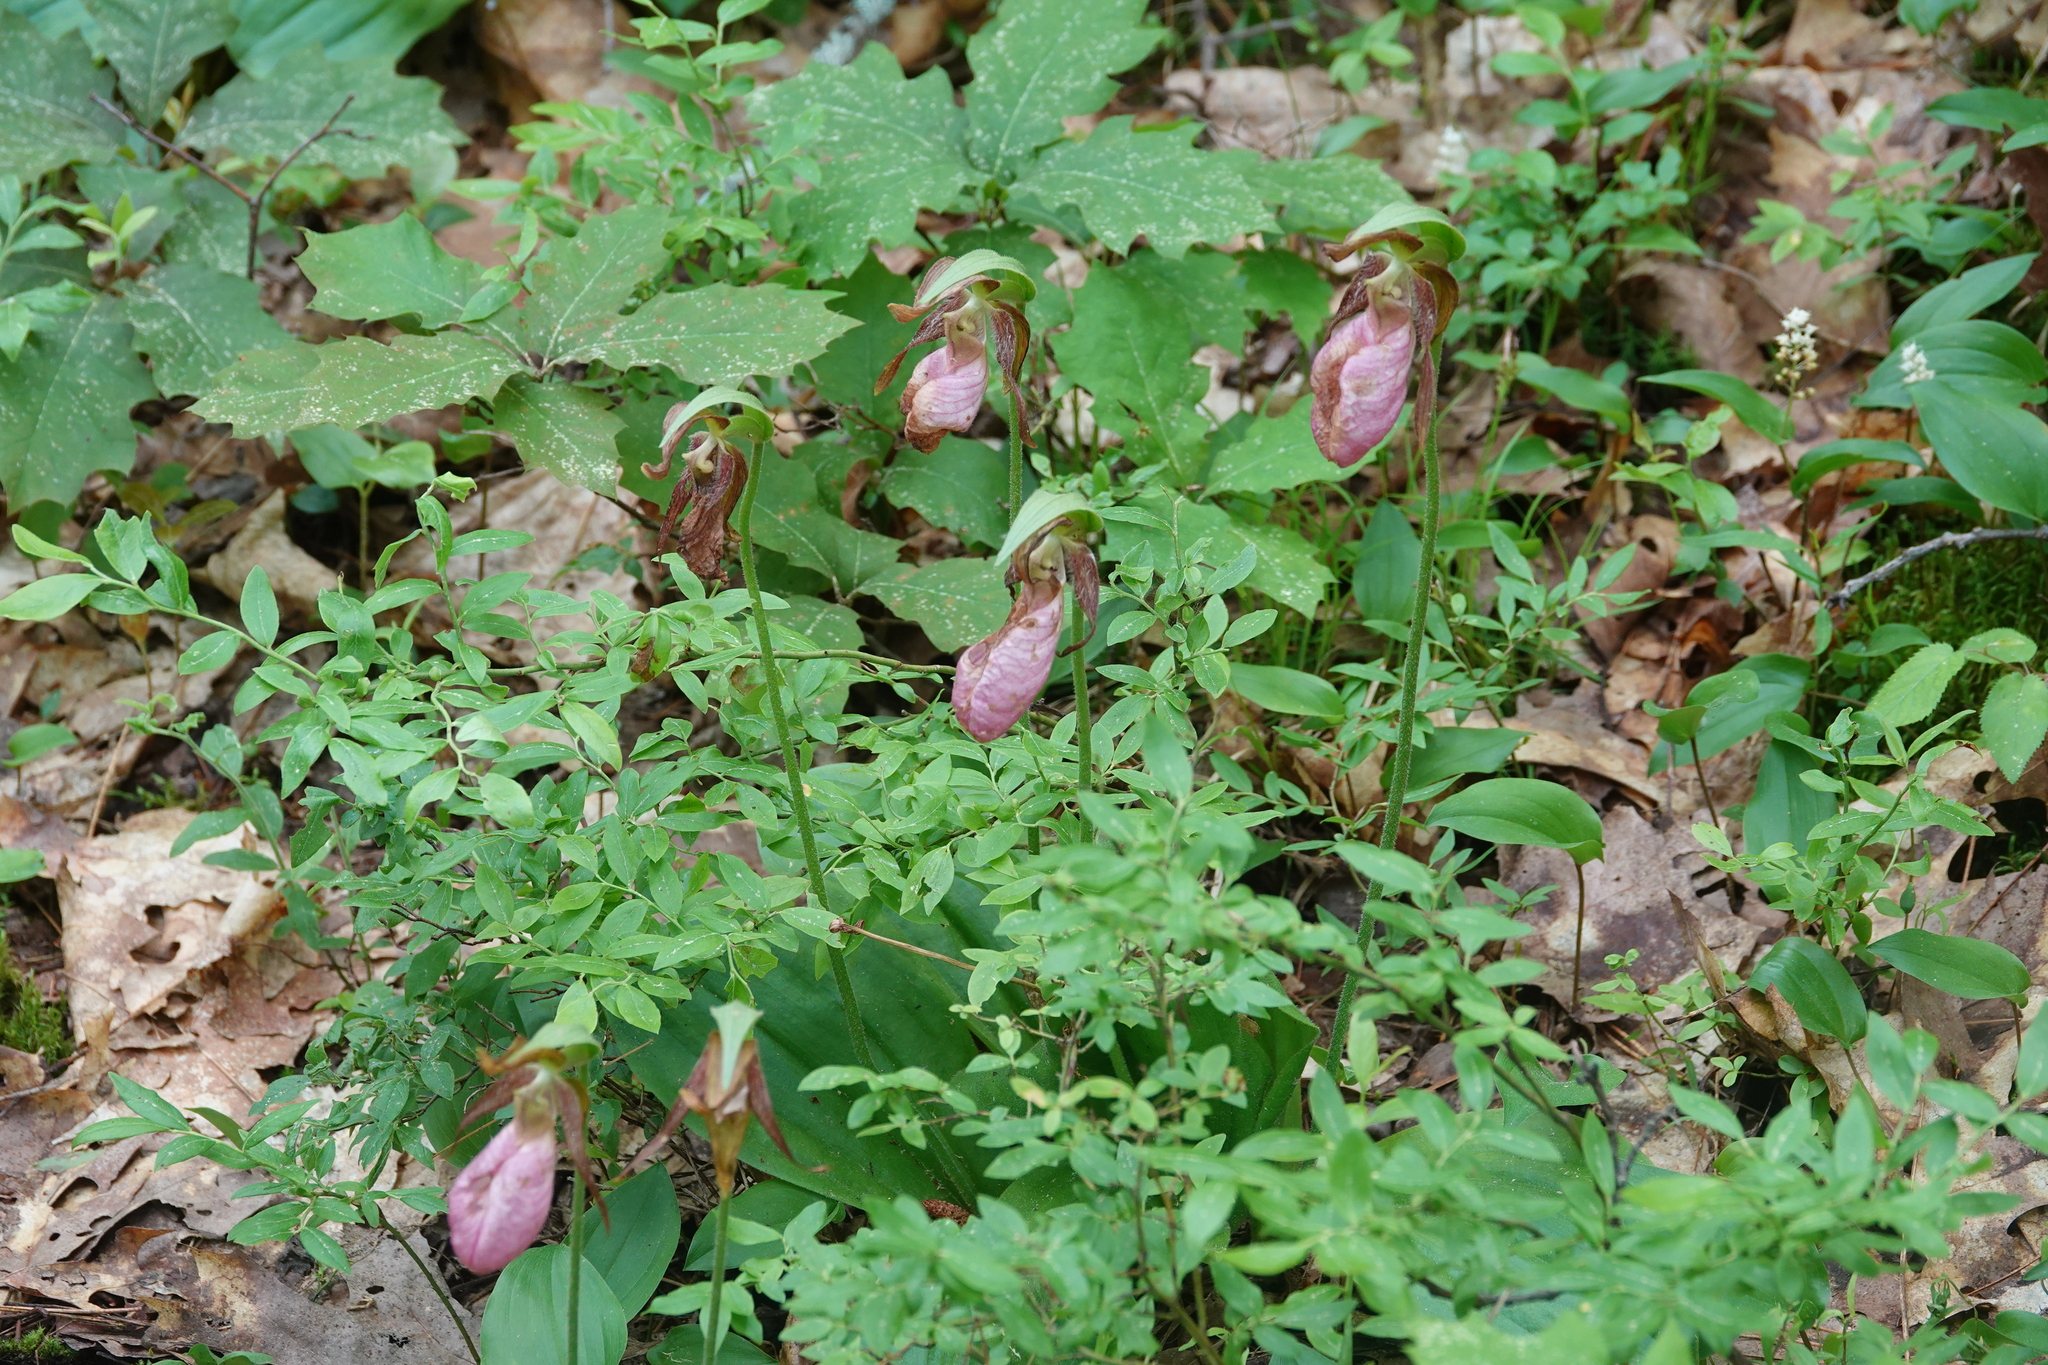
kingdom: Plantae
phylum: Tracheophyta
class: Liliopsida
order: Asparagales
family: Orchidaceae
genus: Cypripedium
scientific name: Cypripedium acaule
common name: Pink lady's-slipper
